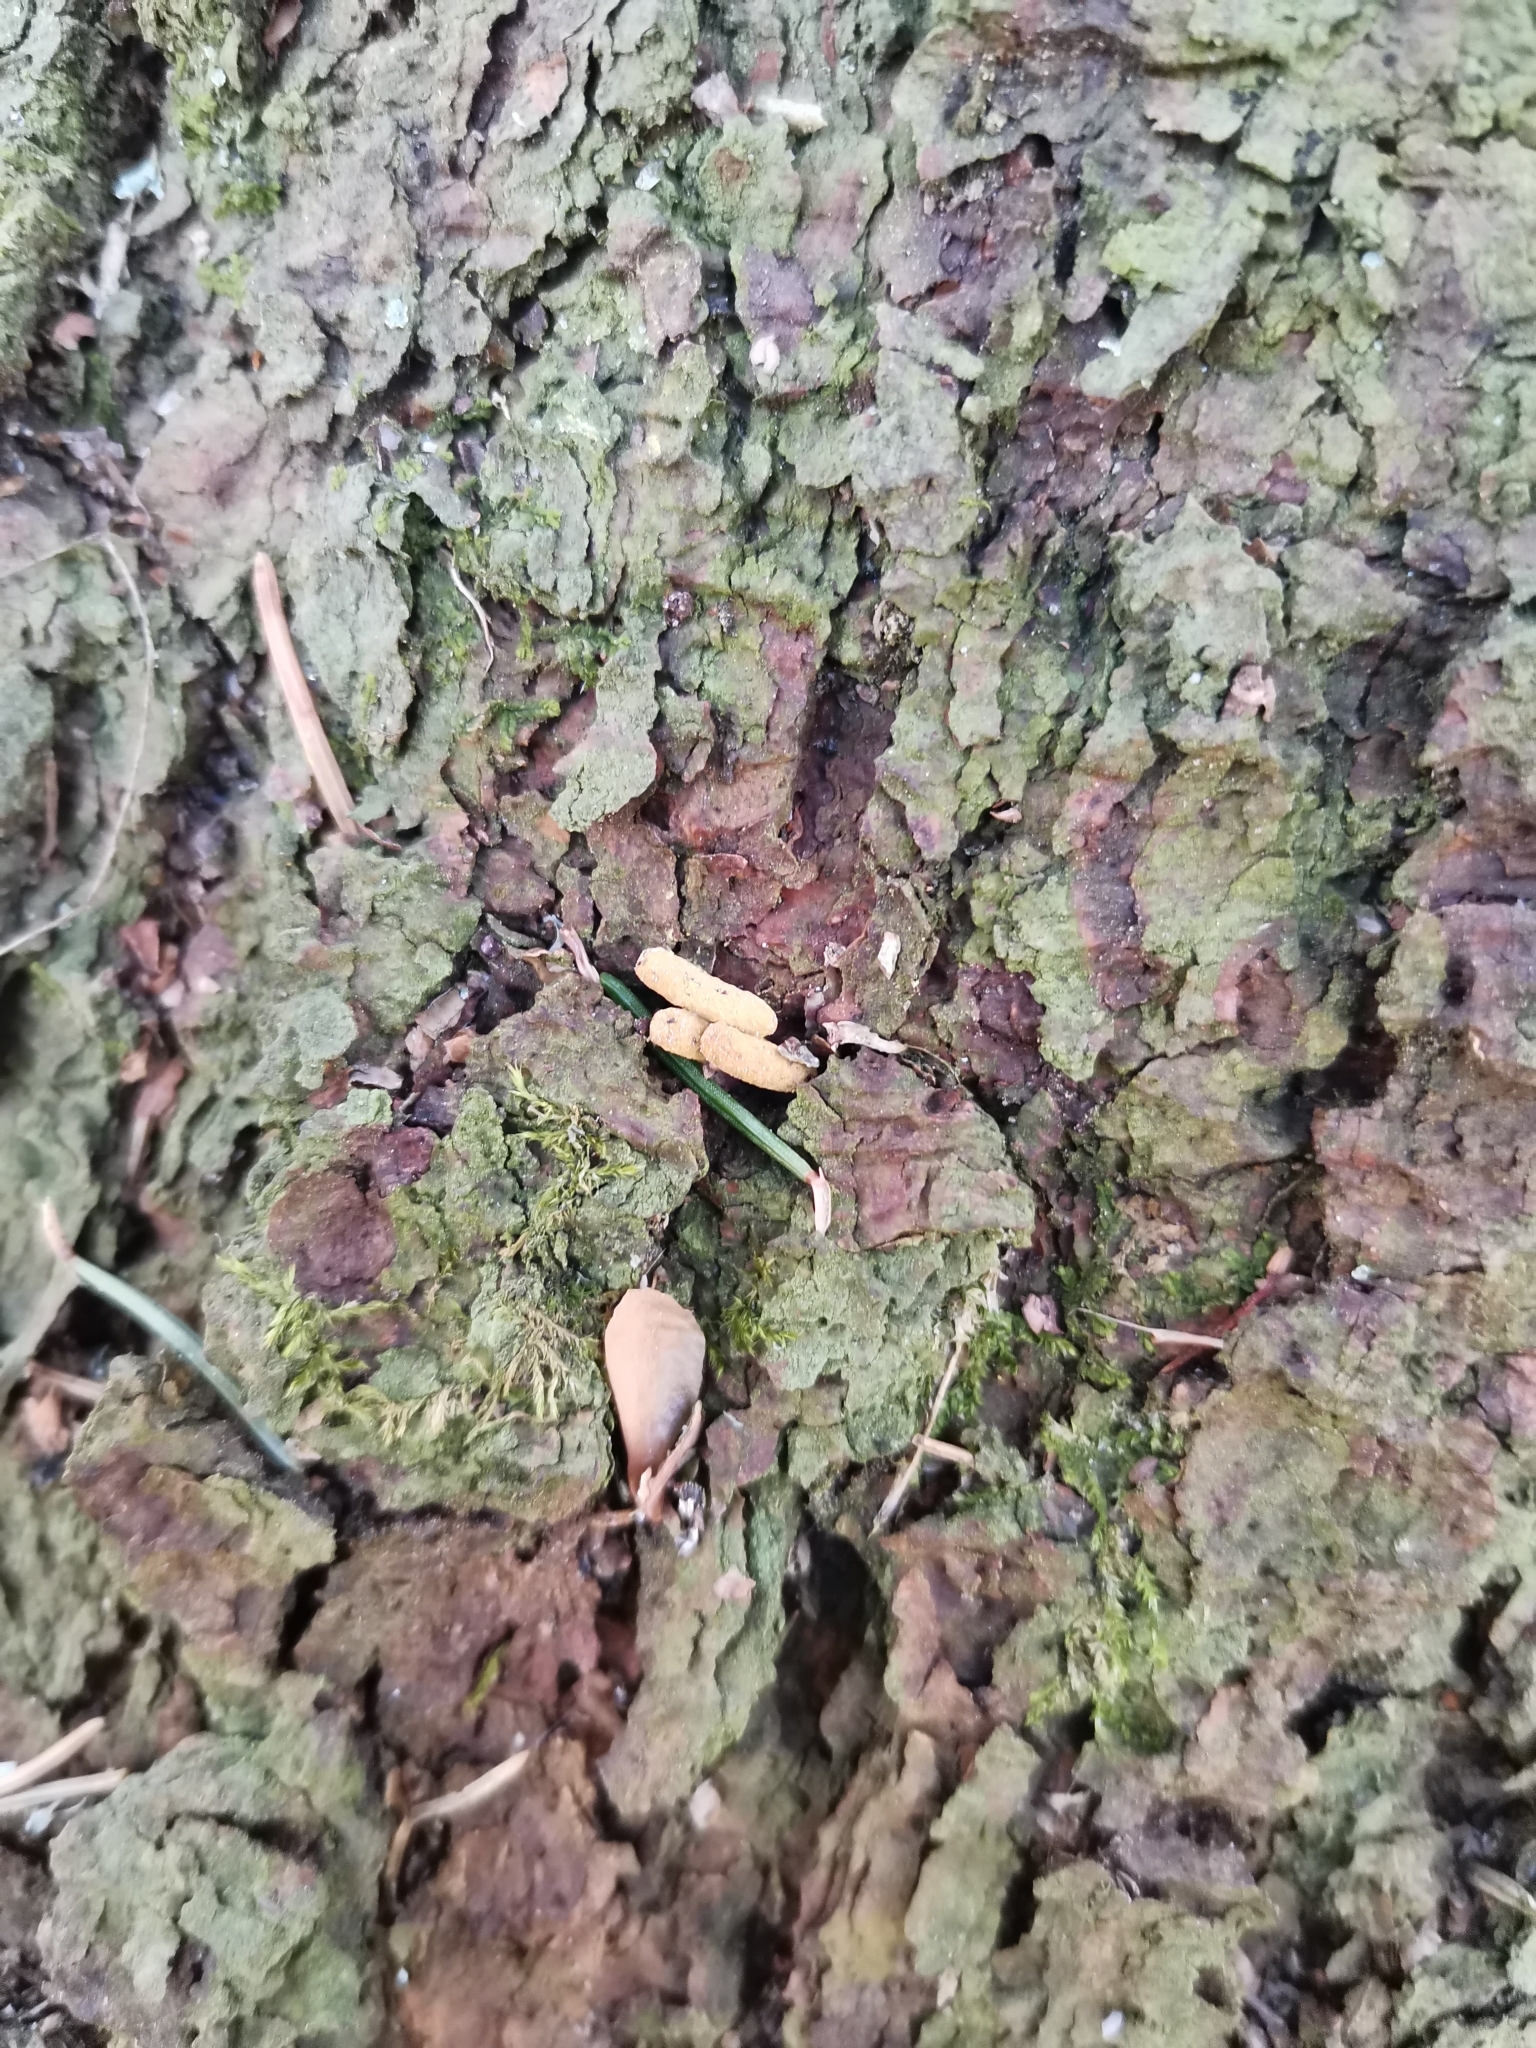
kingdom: Animalia
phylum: Chordata
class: Mammalia
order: Rodentia
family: Sciuridae
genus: Pteromys
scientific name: Pteromys volans
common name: Siberian flying squirrel
